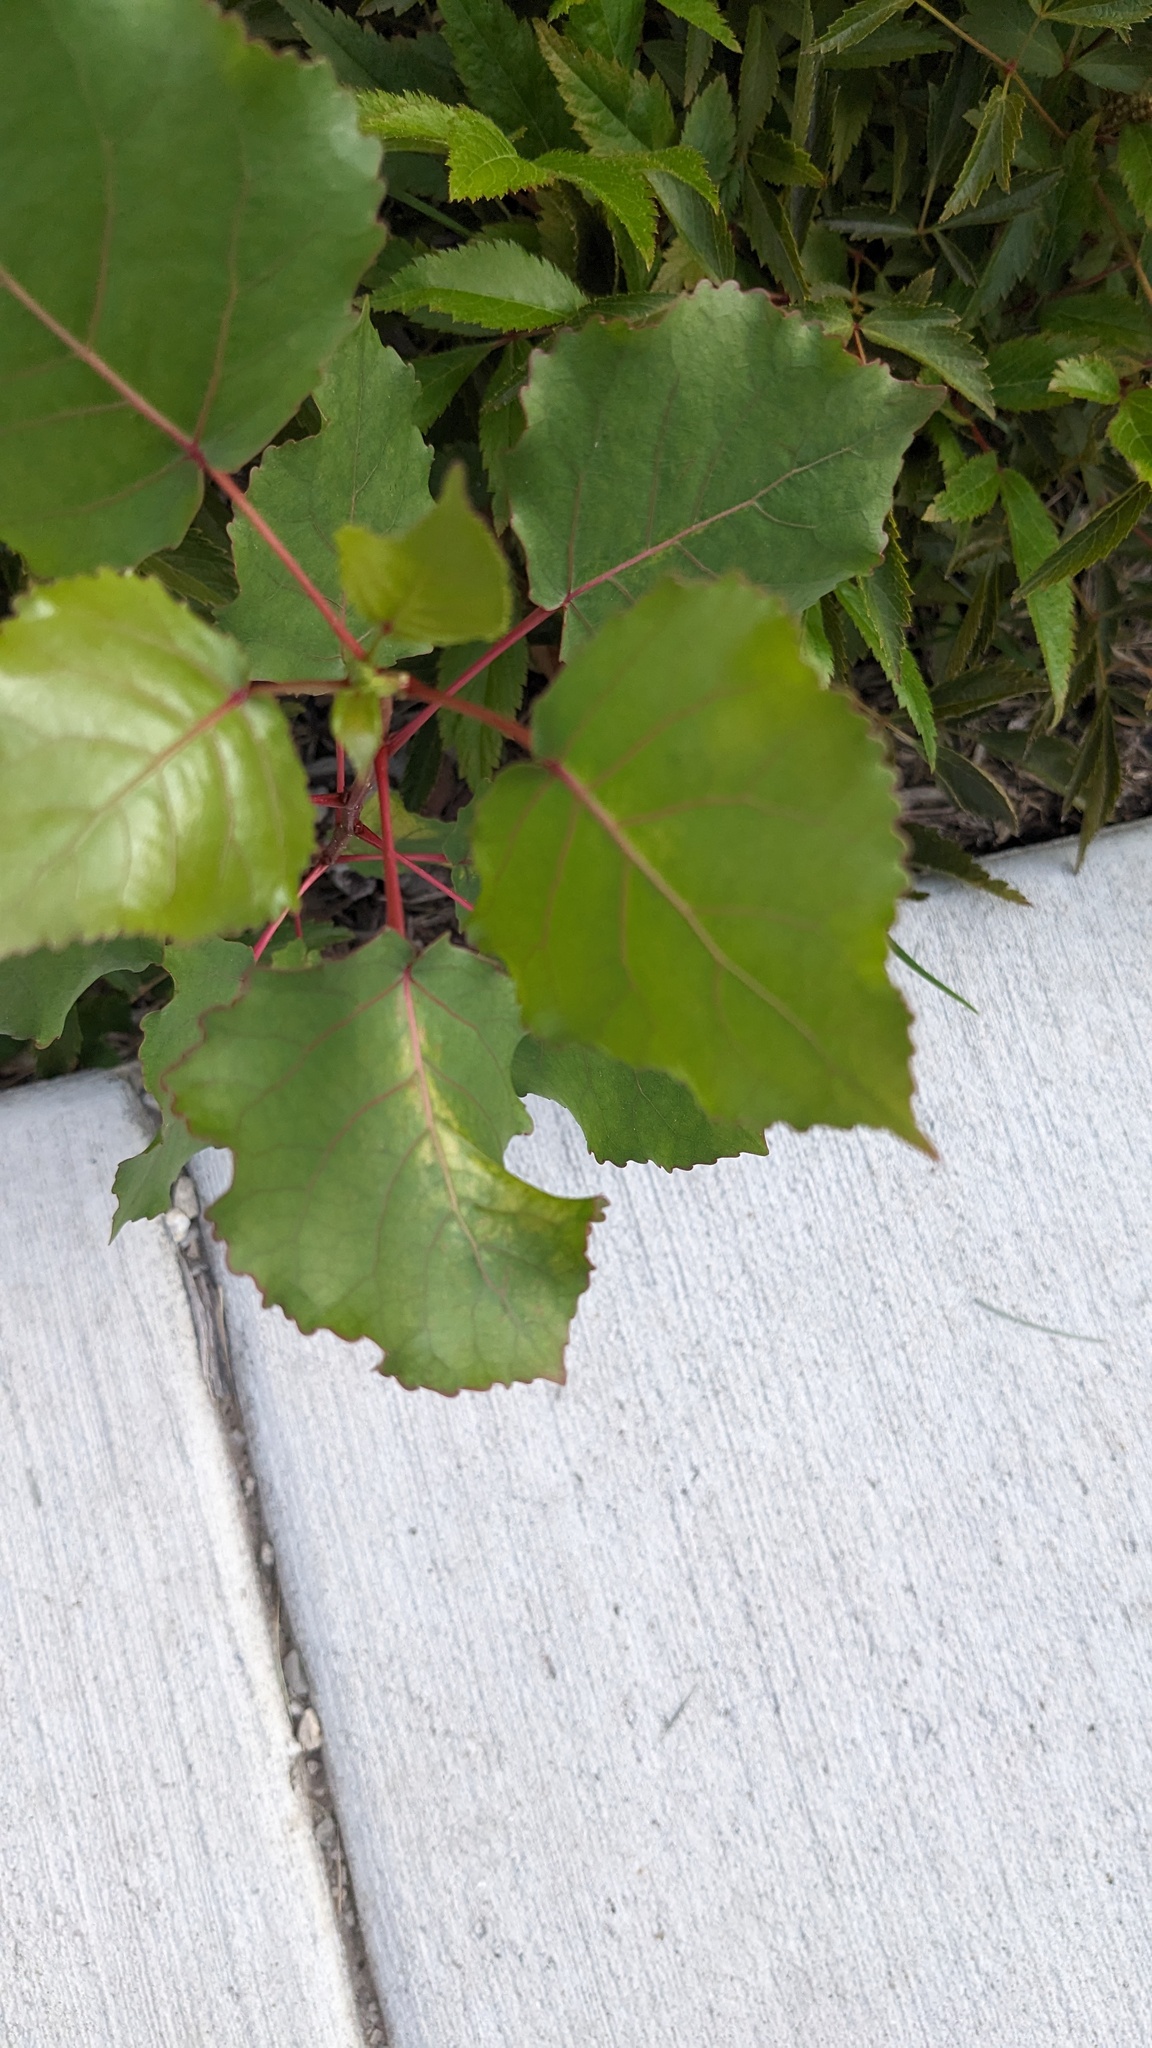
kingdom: Plantae
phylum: Tracheophyta
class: Magnoliopsida
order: Malpighiales
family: Salicaceae
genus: Populus
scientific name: Populus deltoides
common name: Eastern cottonwood
